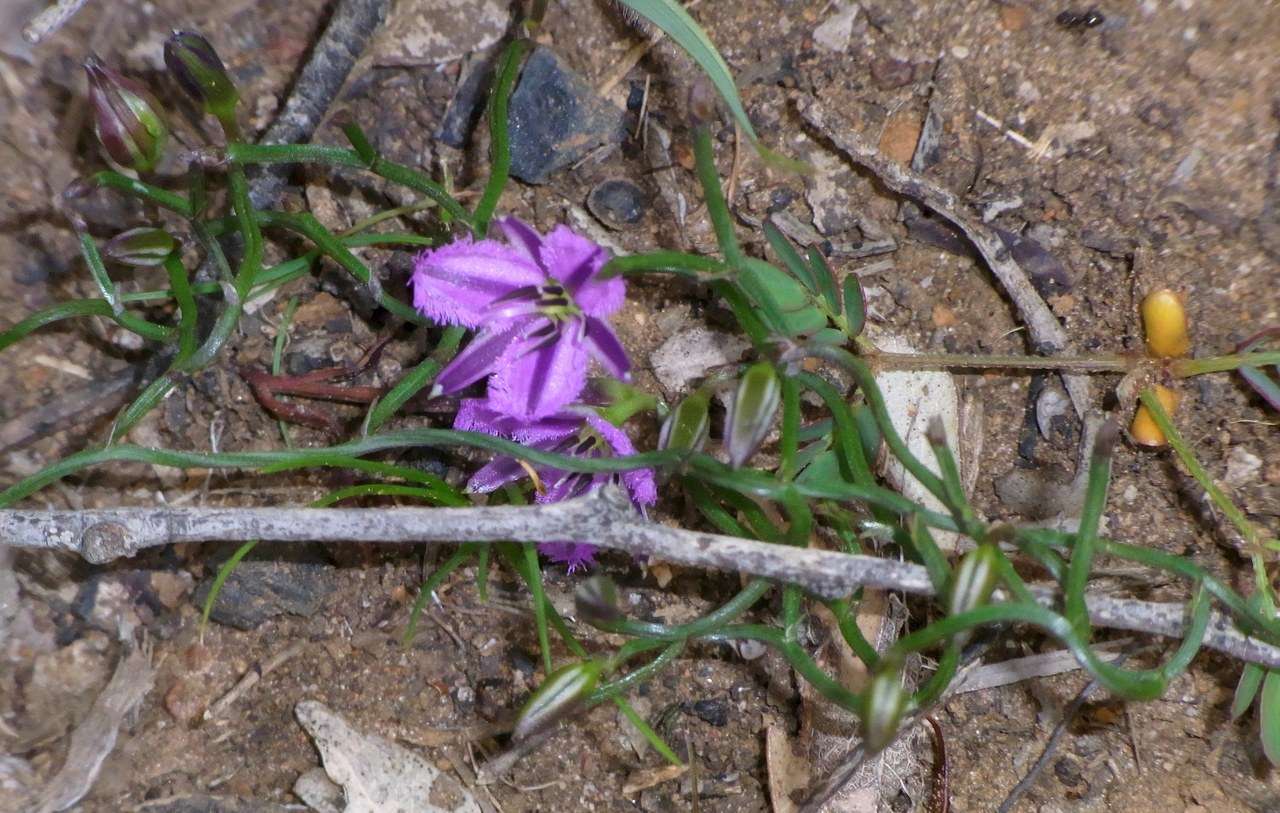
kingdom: Plantae
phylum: Tracheophyta
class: Liliopsida
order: Asparagales
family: Asparagaceae
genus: Thysanotus
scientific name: Thysanotus patersonii
